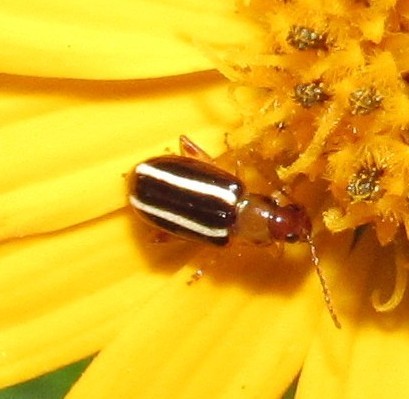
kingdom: Animalia
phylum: Arthropoda
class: Insecta
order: Coleoptera
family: Chrysomelidae
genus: Systena
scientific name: Systena
